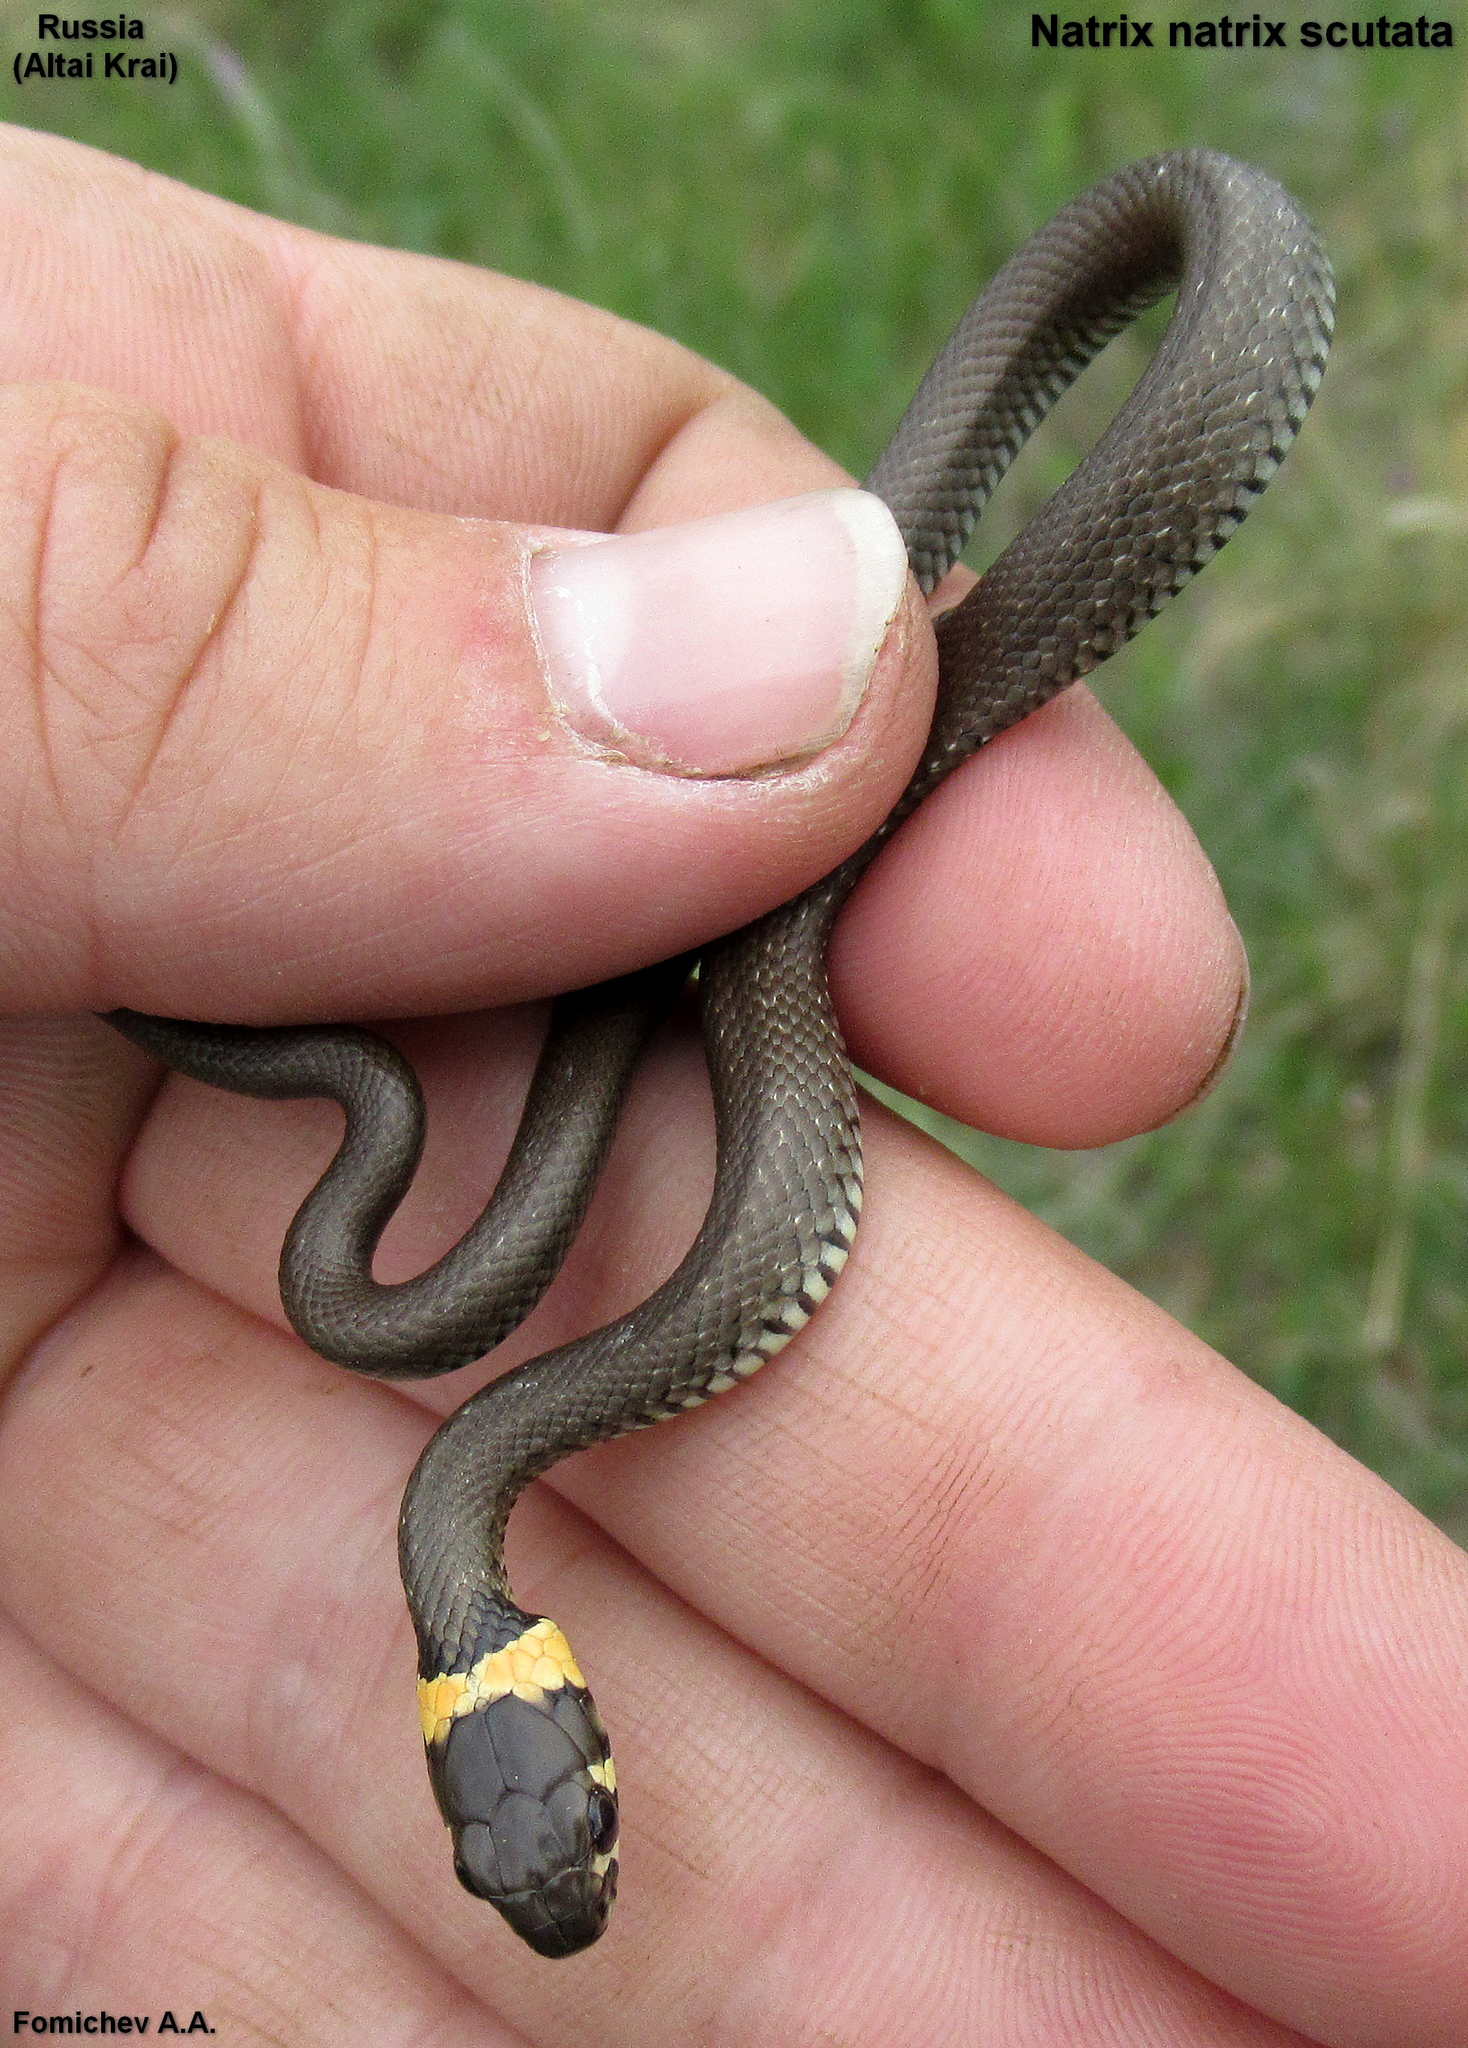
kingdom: Animalia
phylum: Chordata
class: Squamata
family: Colubridae
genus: Natrix
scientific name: Natrix natrix
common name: Grass snake
